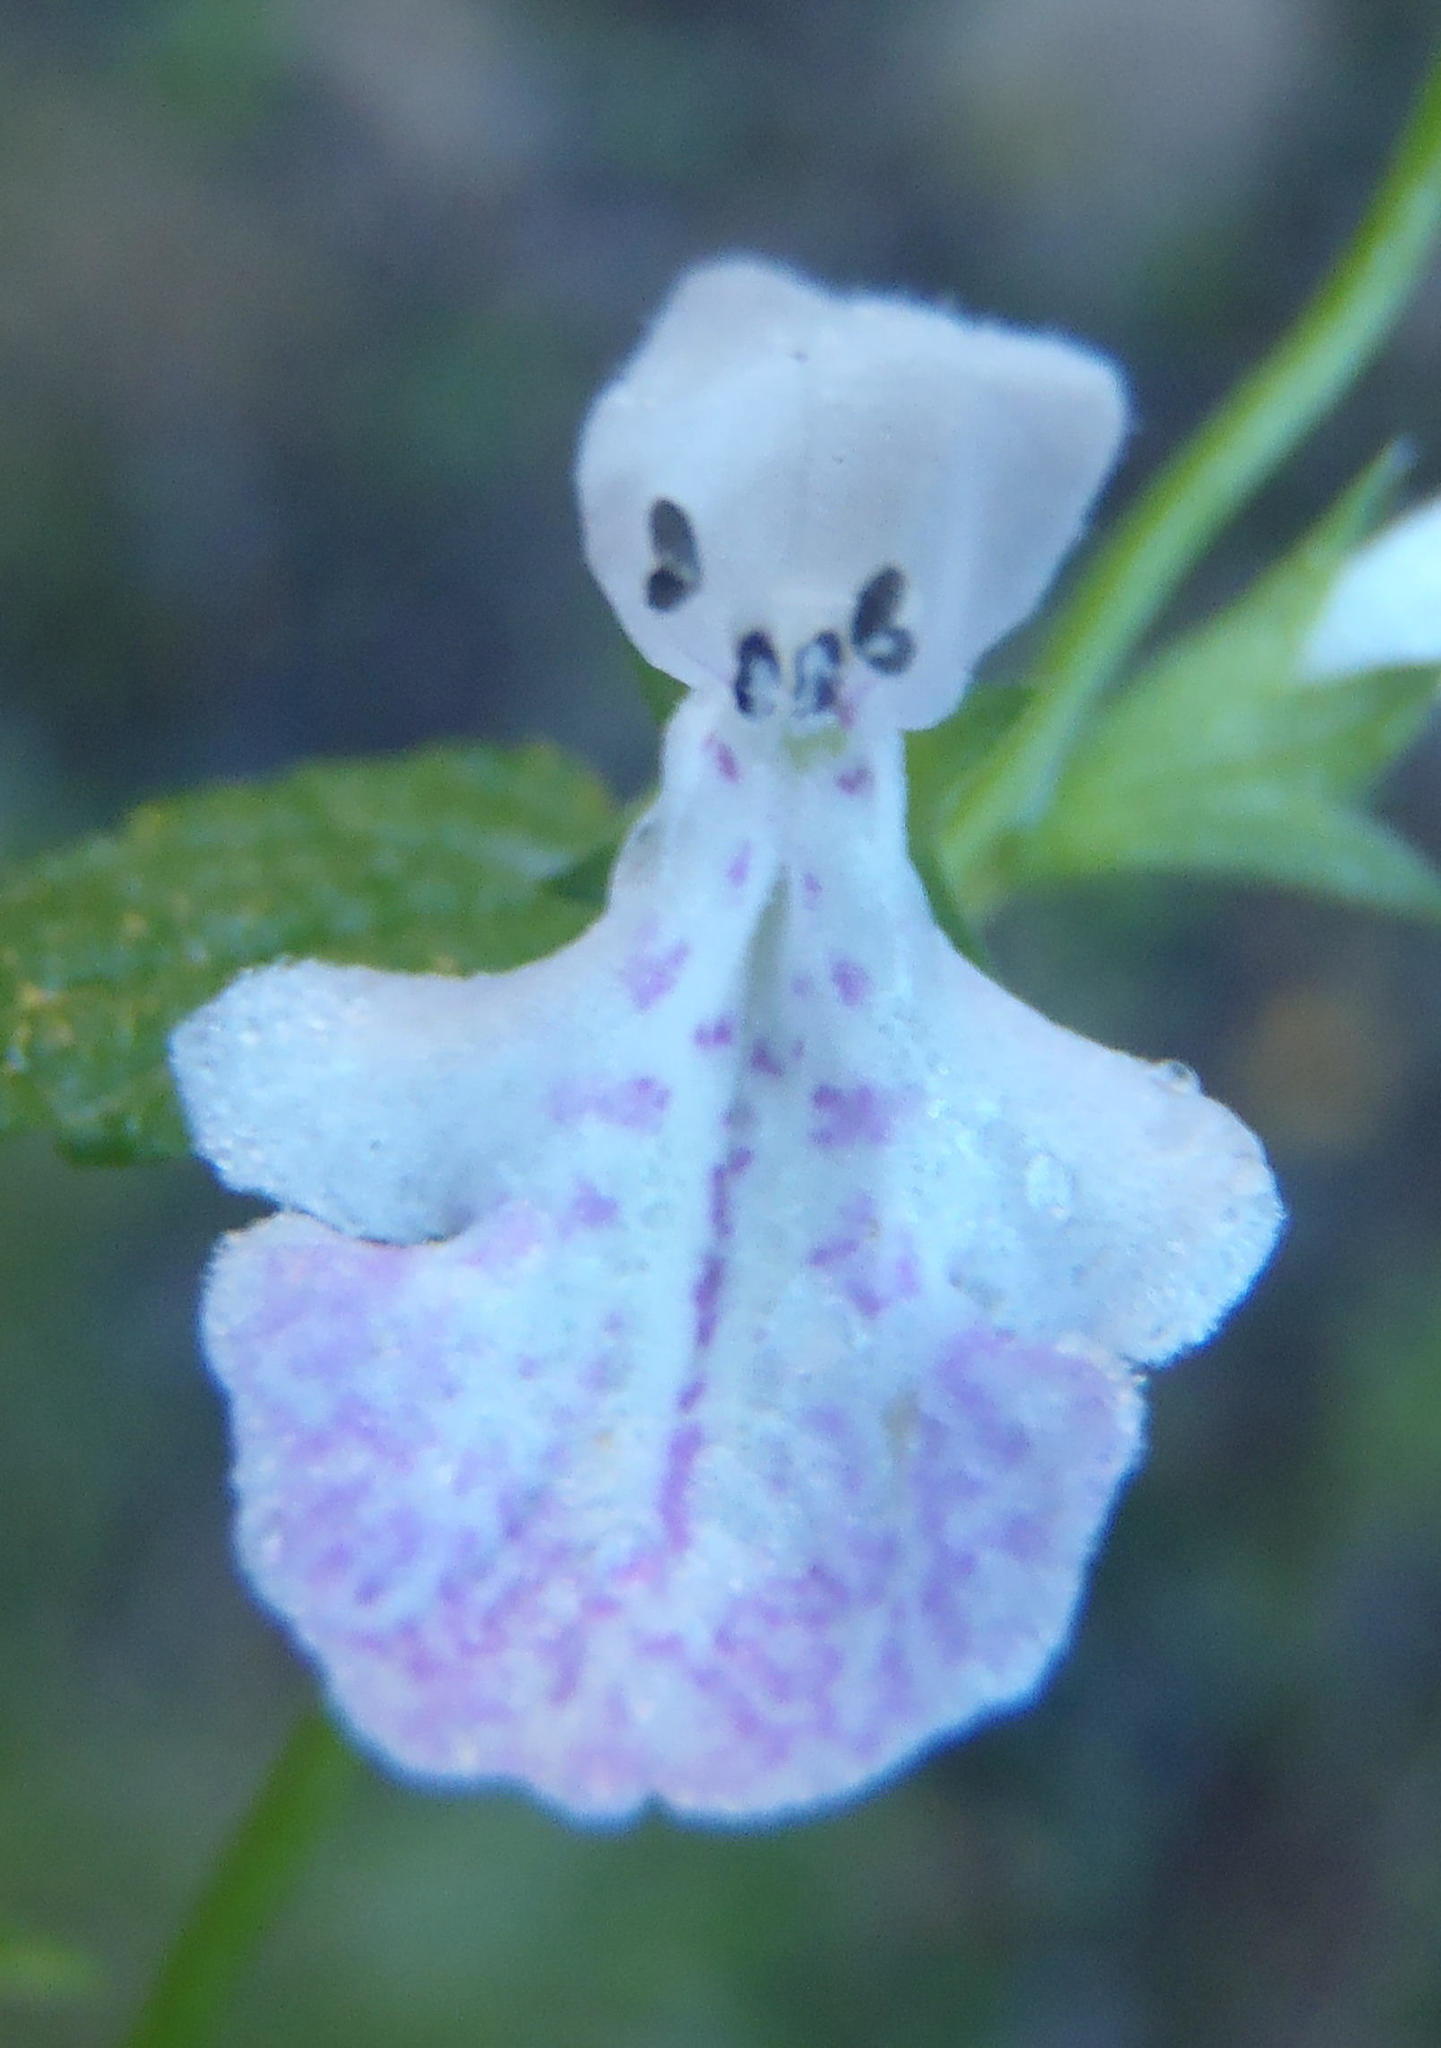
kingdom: Plantae
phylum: Tracheophyta
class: Magnoliopsida
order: Lamiales
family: Lamiaceae
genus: Stachys
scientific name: Stachys aethiopica
